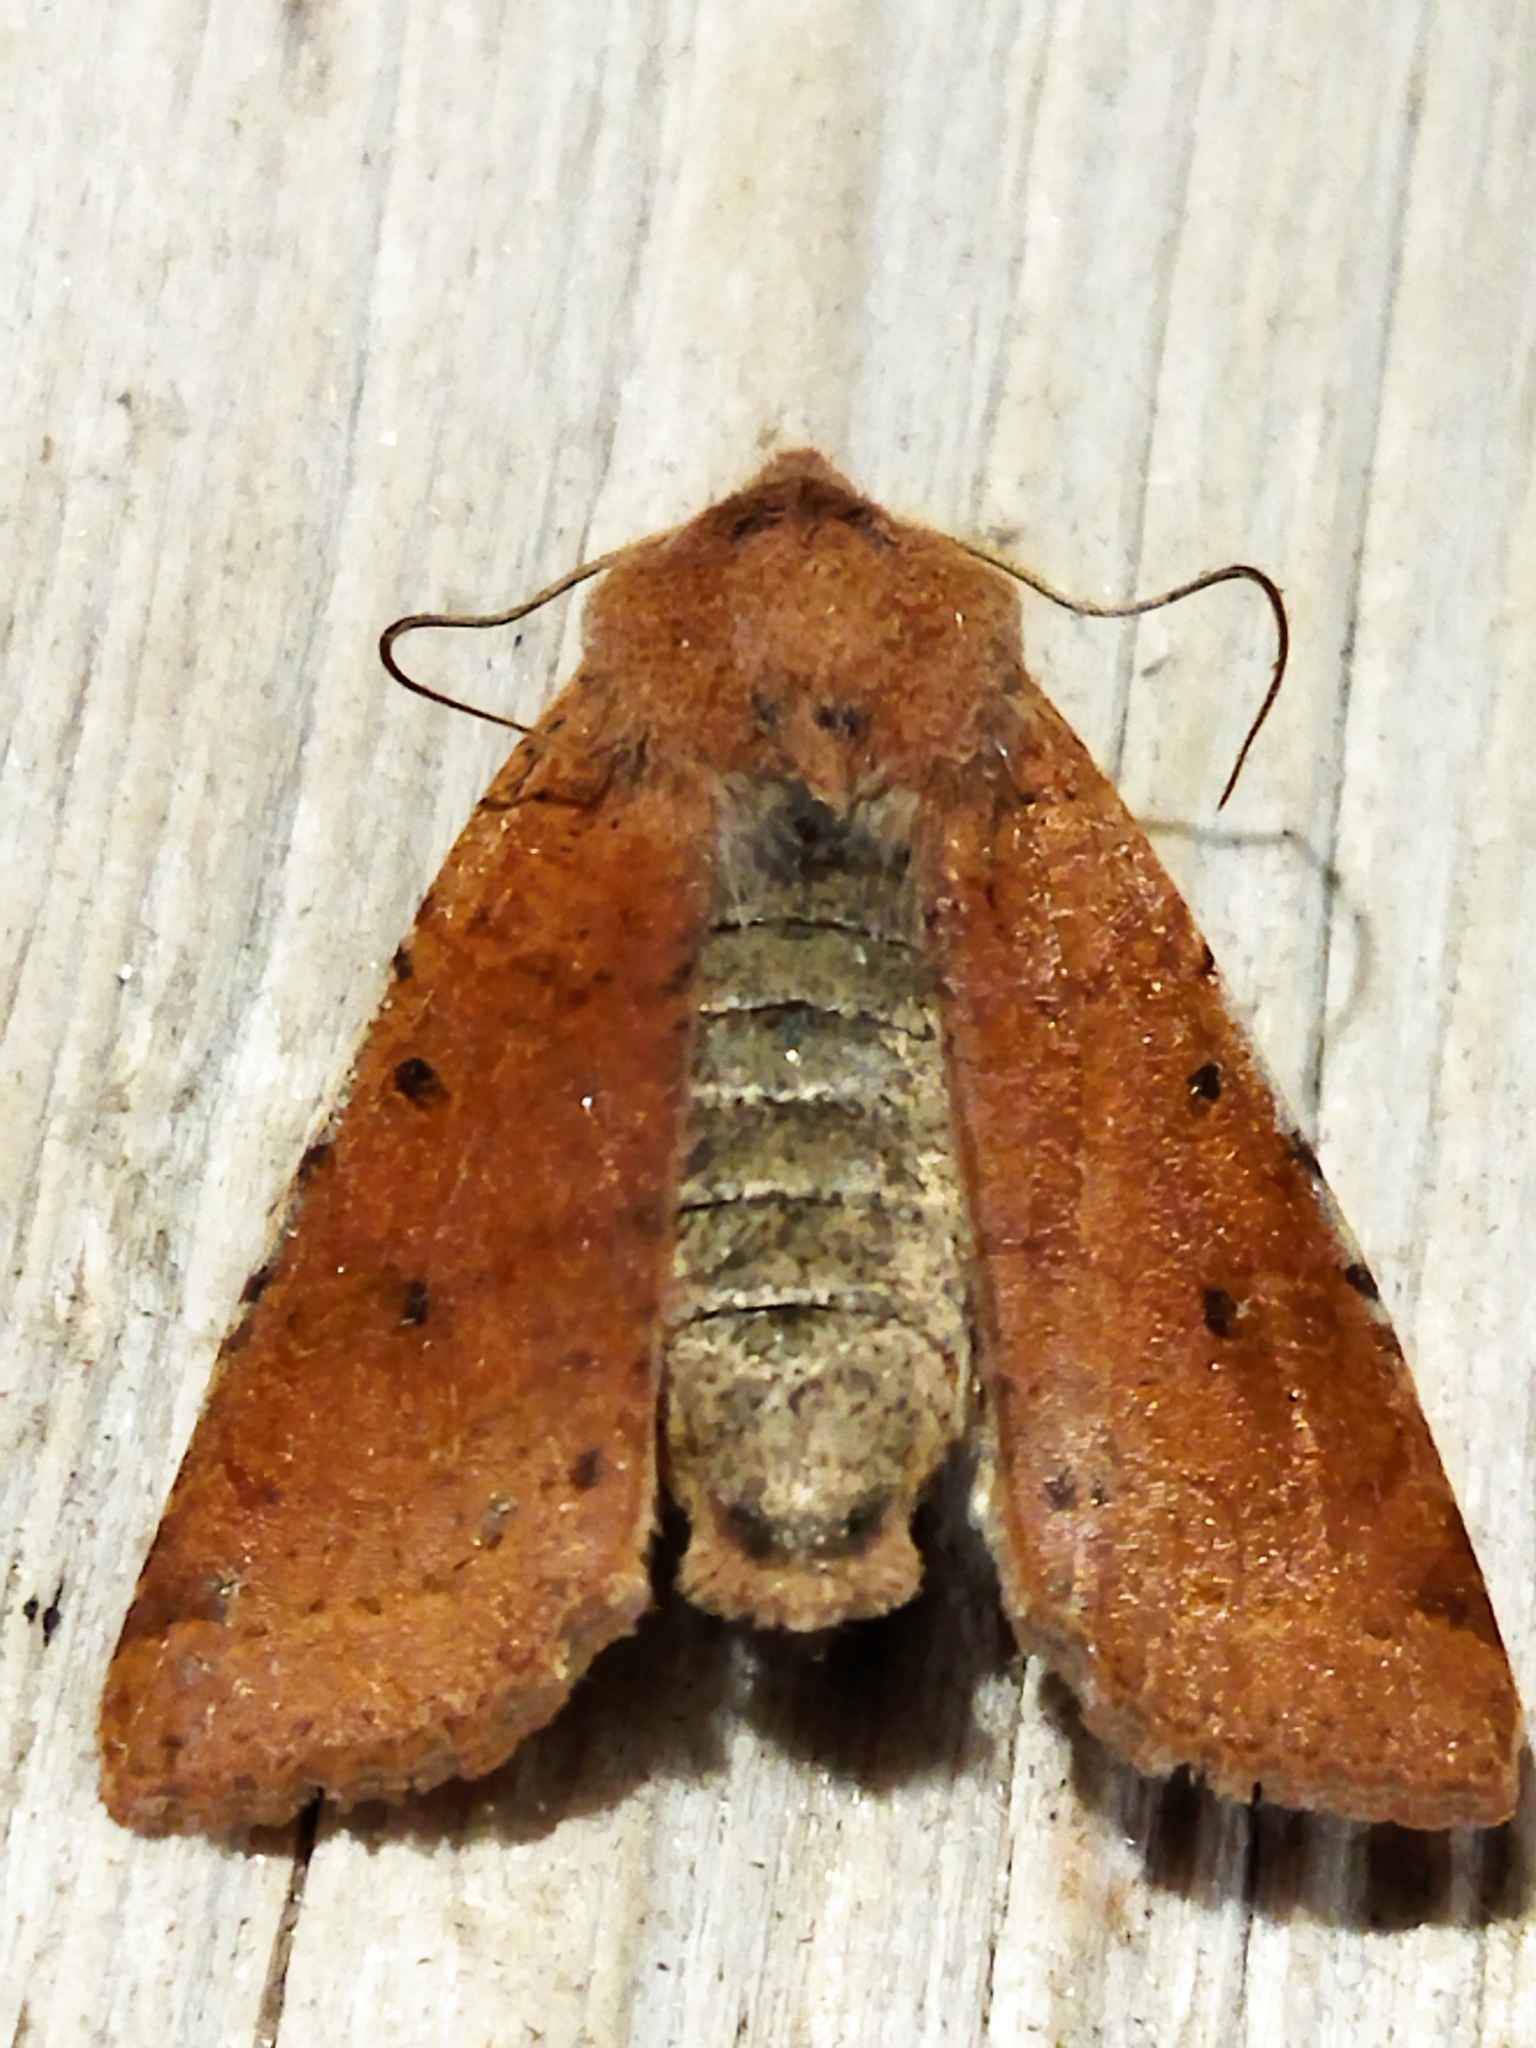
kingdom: Animalia
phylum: Arthropoda
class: Insecta
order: Lepidoptera
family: Noctuidae
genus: Agrochola
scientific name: Agrochola lychnidis
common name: Beaded chestnut
